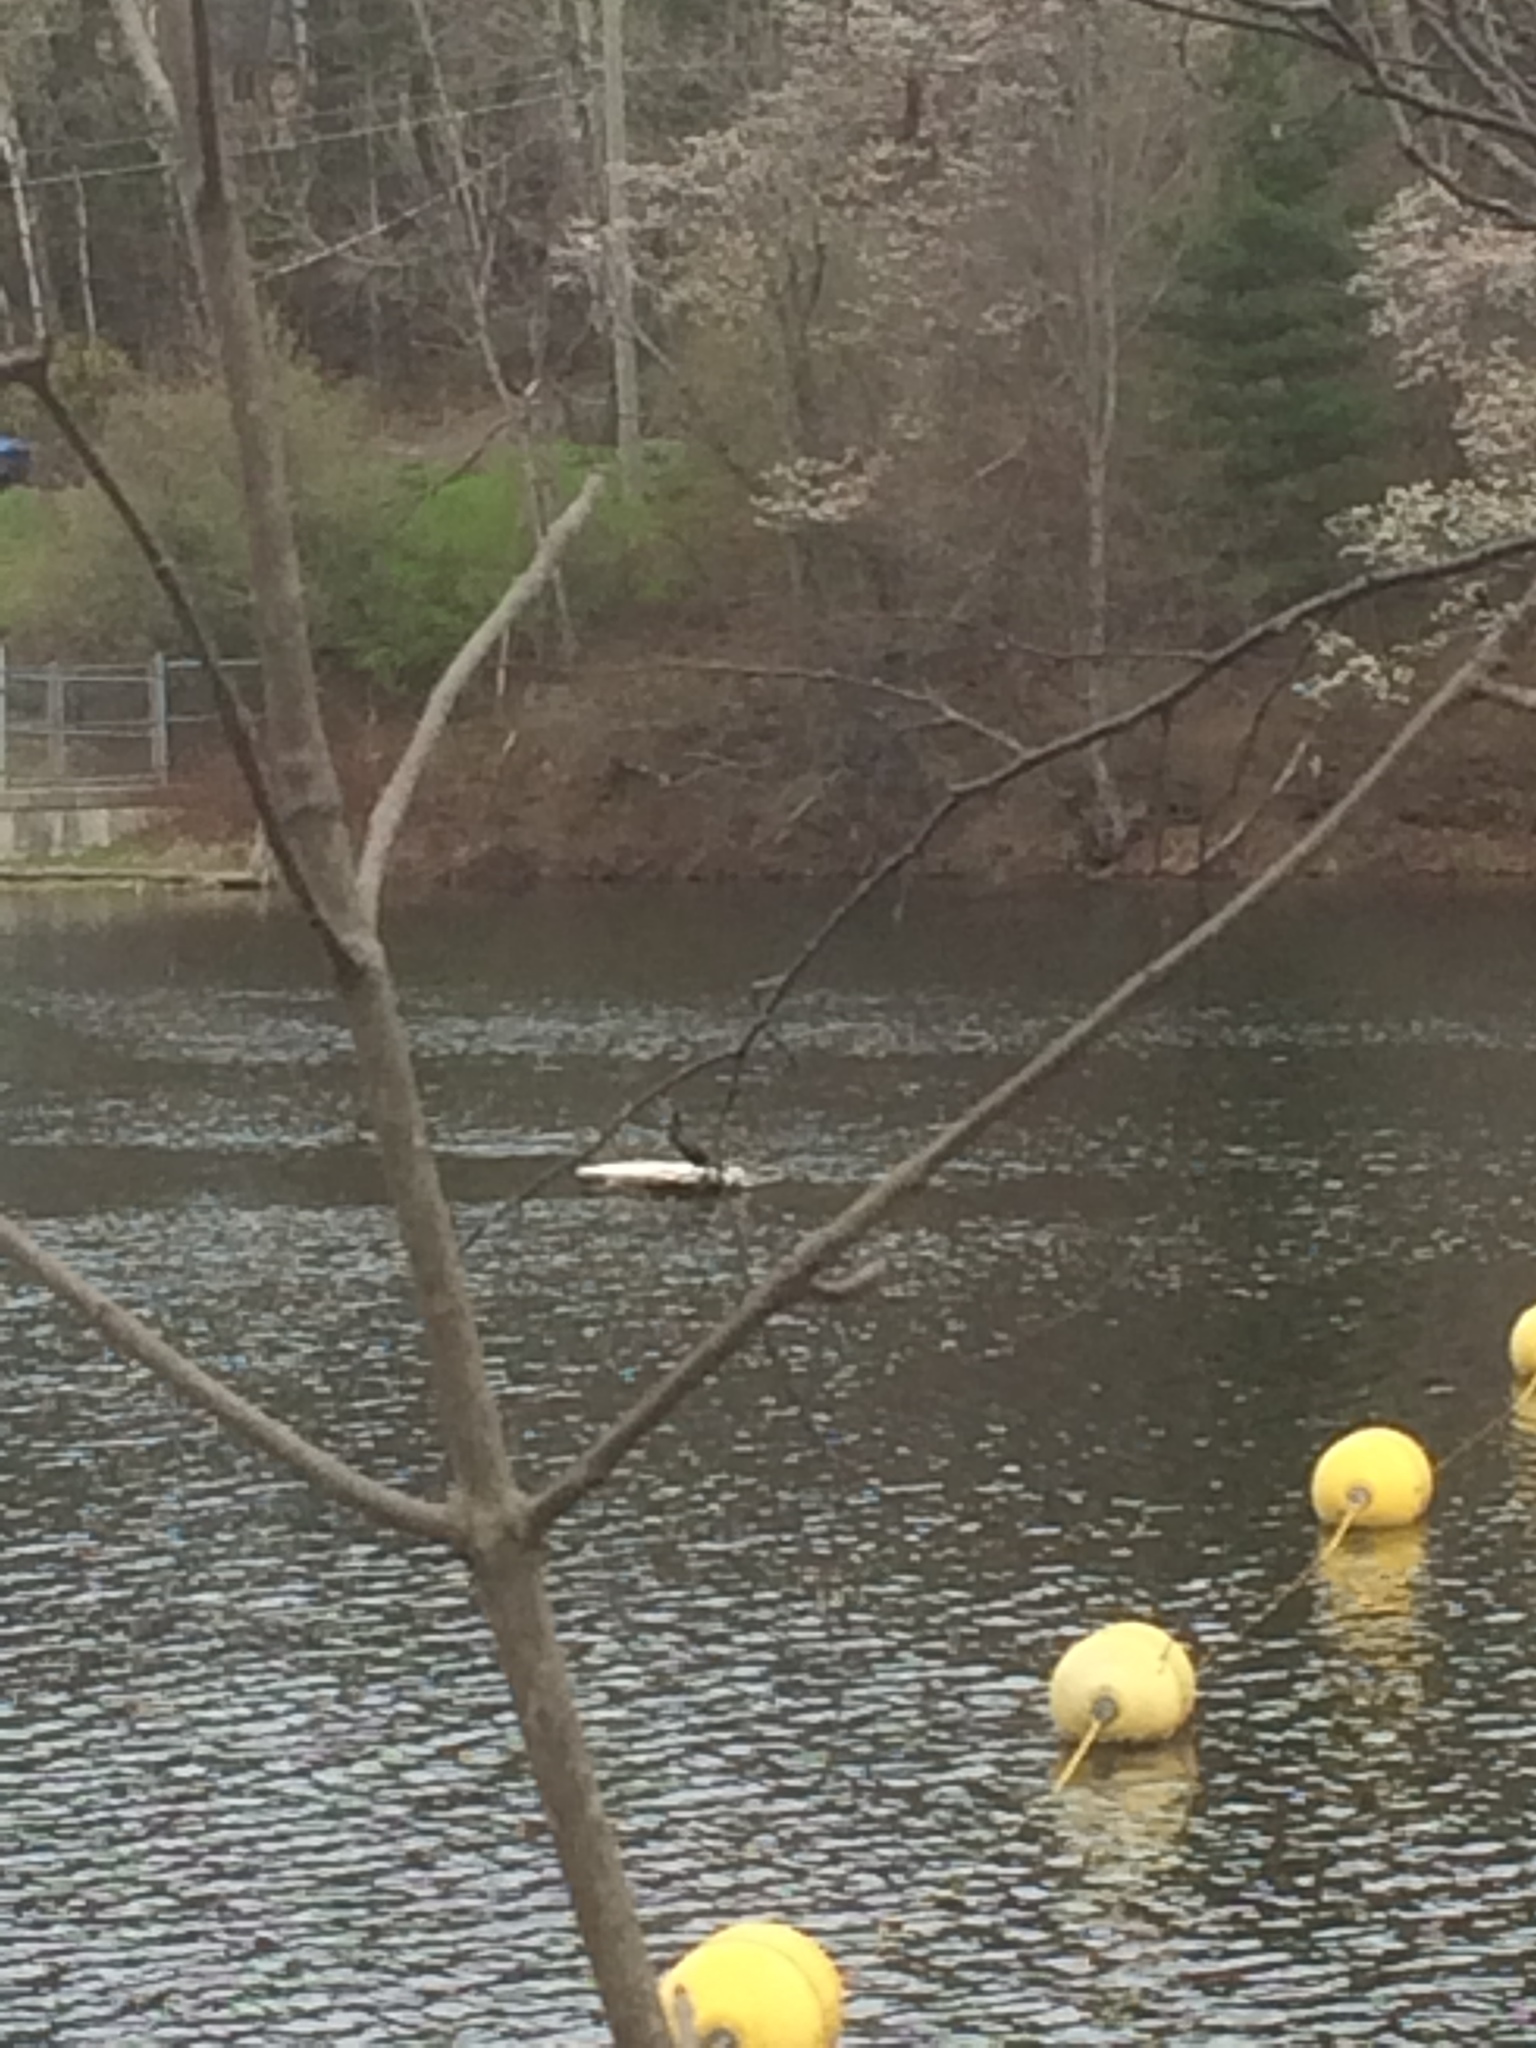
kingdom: Animalia
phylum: Chordata
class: Aves
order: Suliformes
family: Phalacrocoracidae
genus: Phalacrocorax
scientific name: Phalacrocorax auritus
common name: Double-crested cormorant
